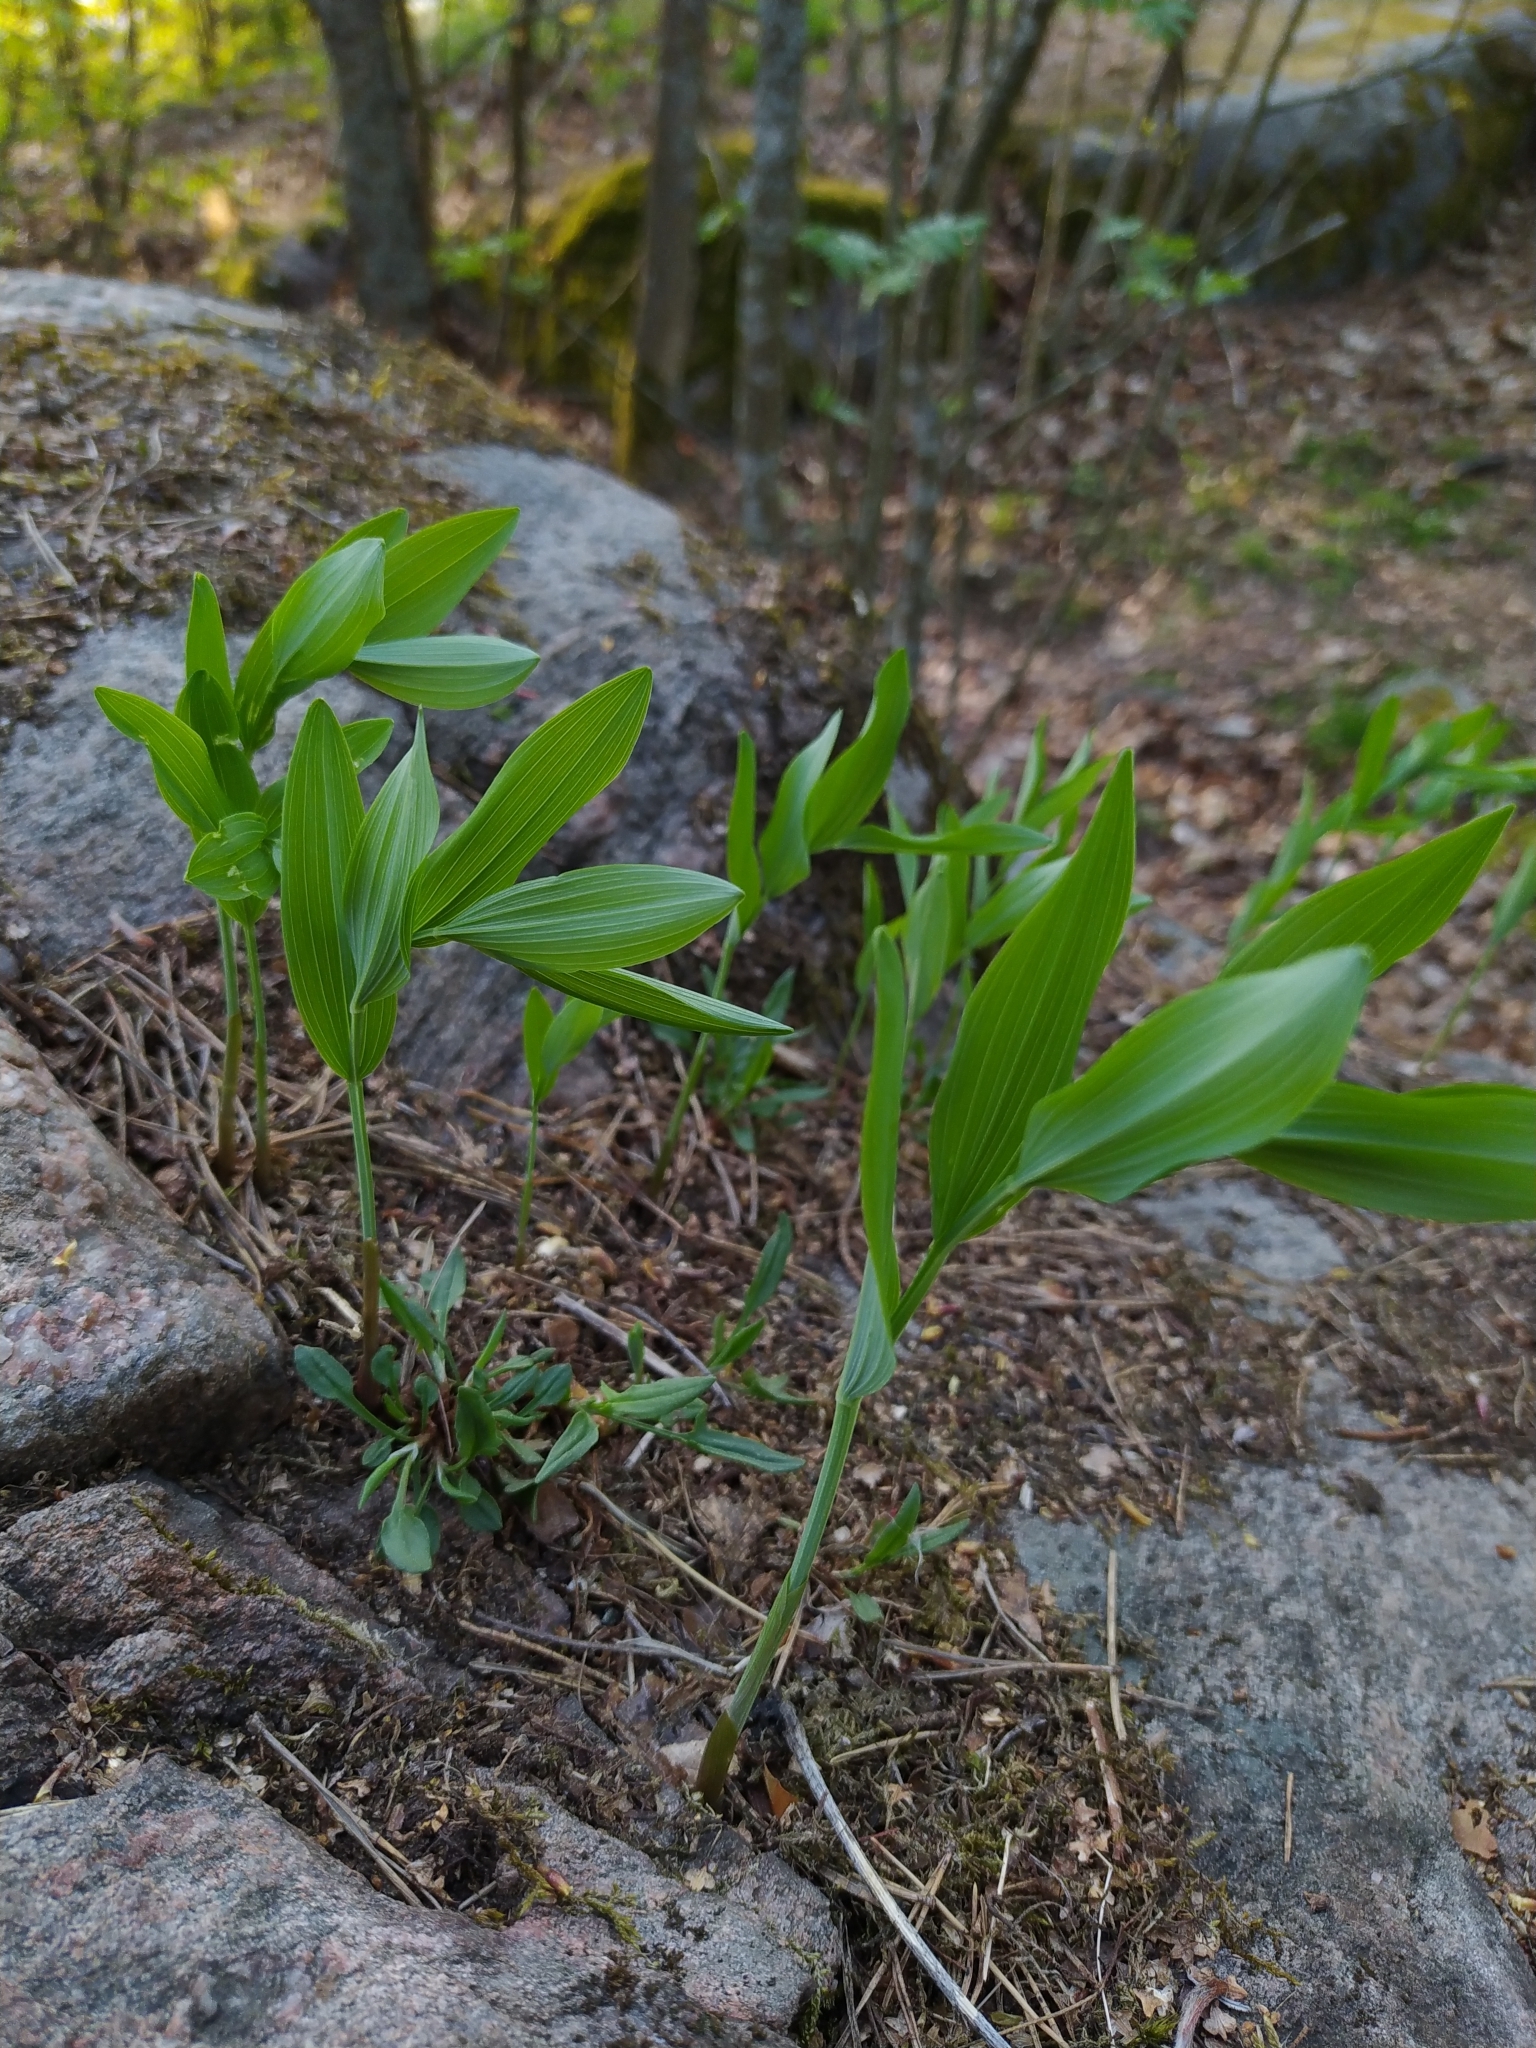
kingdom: Plantae
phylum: Tracheophyta
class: Liliopsida
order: Asparagales
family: Asparagaceae
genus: Polygonatum
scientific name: Polygonatum odoratum
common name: Angular solomon's-seal
